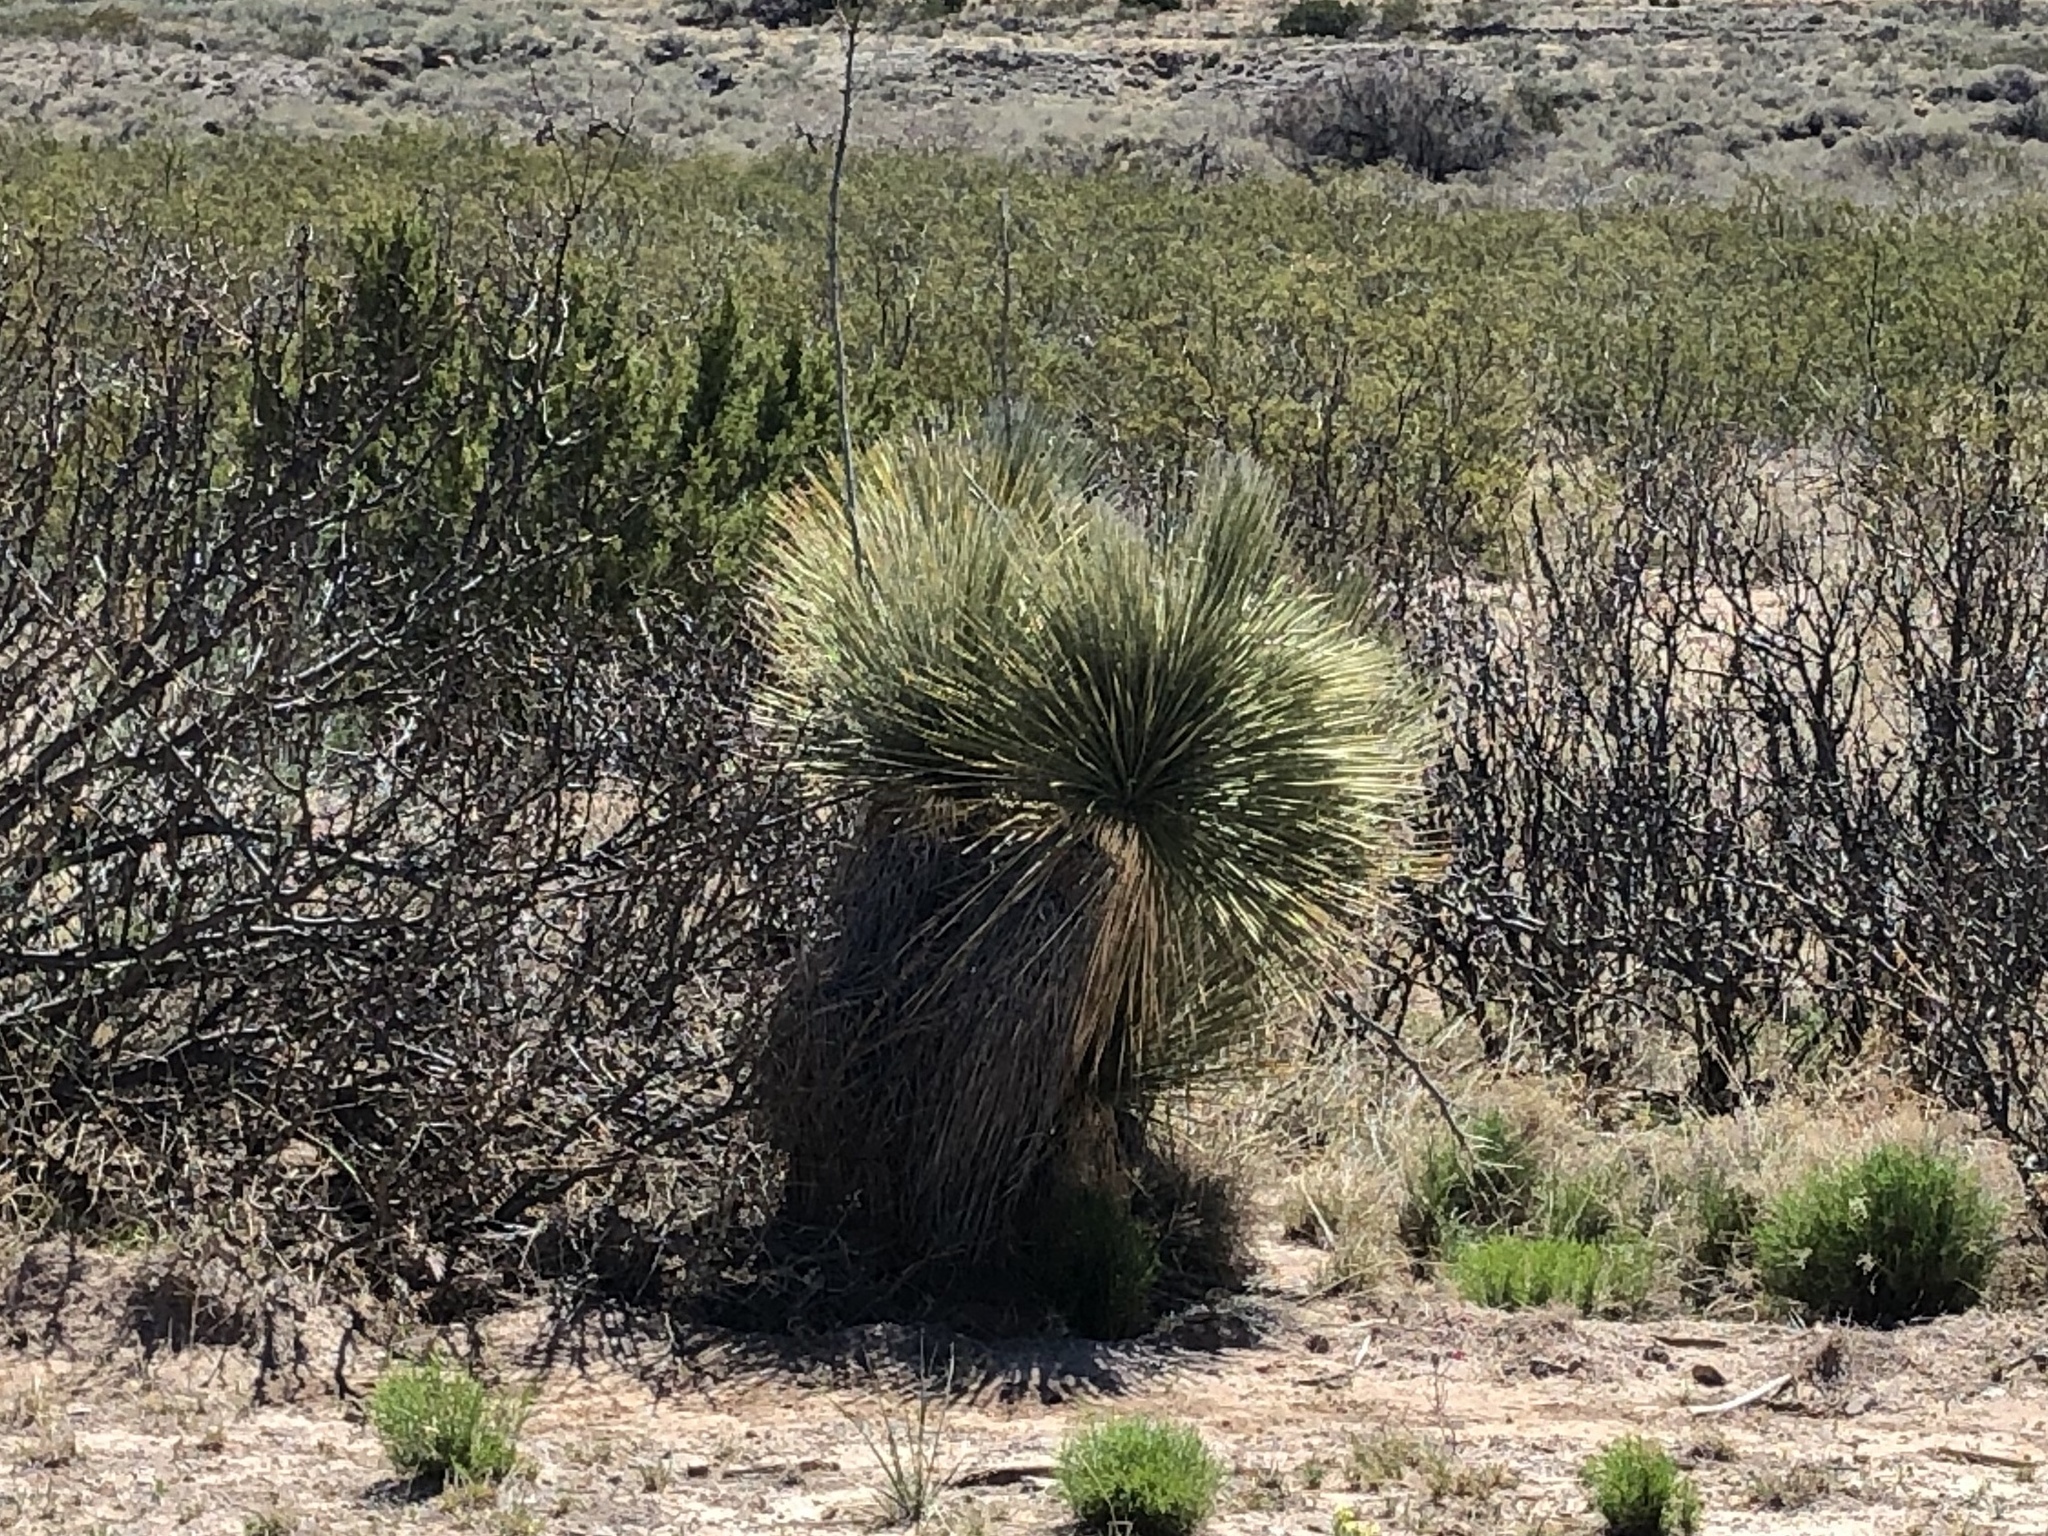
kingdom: Plantae
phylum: Tracheophyta
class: Liliopsida
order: Asparagales
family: Asparagaceae
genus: Yucca
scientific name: Yucca elata
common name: Palmella
